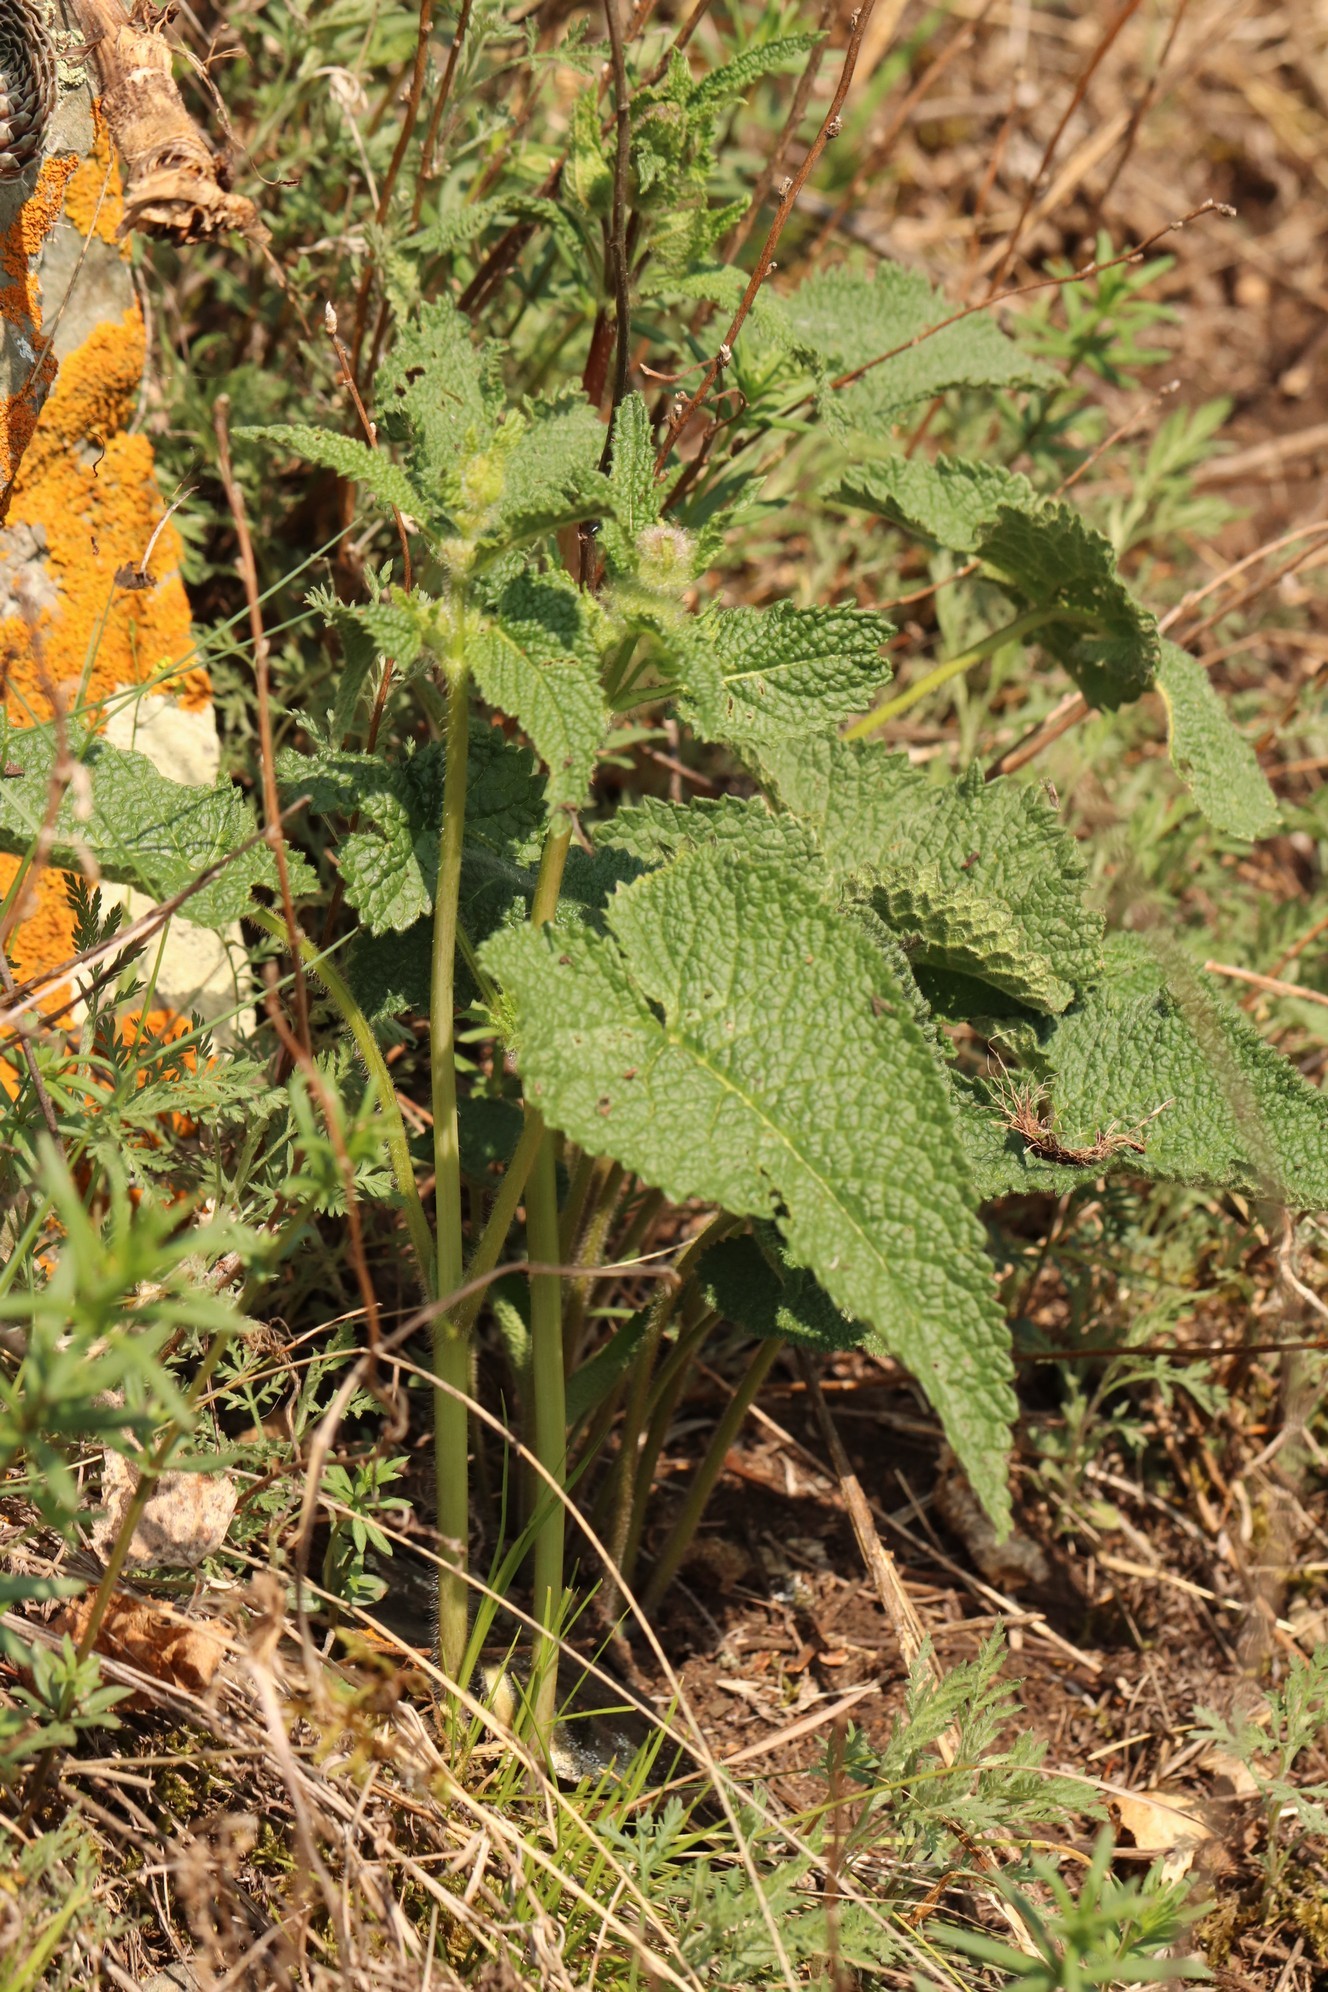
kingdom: Plantae
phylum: Tracheophyta
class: Magnoliopsida
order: Lamiales
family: Lamiaceae
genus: Phlomoides
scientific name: Phlomoides tuberosa
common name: Tuberous jerusalem sage
